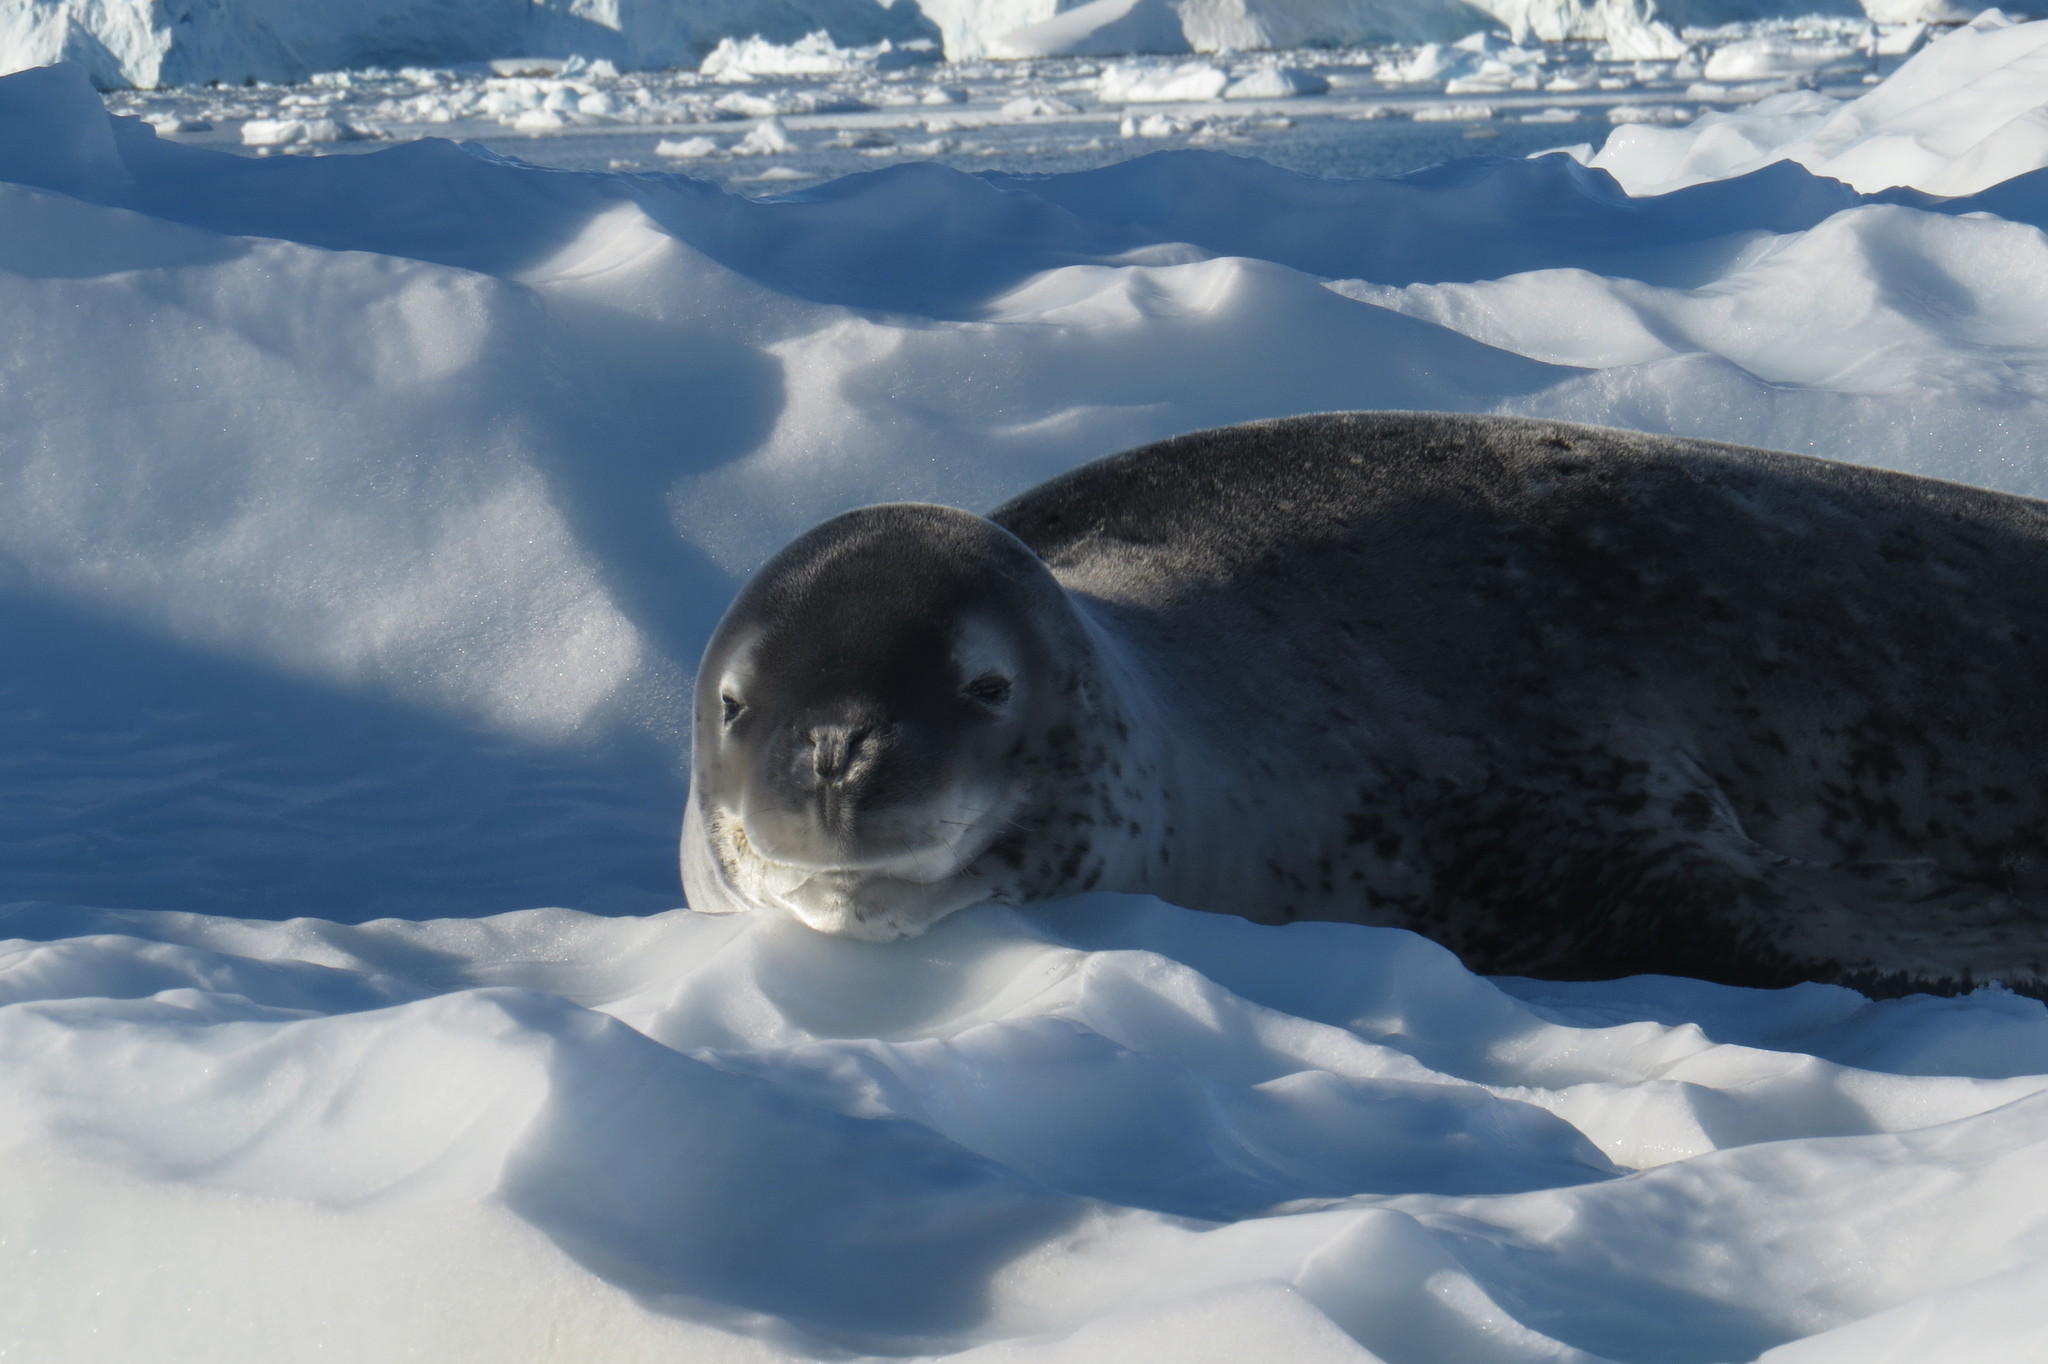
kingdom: Animalia
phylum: Chordata
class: Mammalia
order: Carnivora
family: Phocidae
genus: Hydrurga
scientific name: Hydrurga leptonyx
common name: Leopard seal
